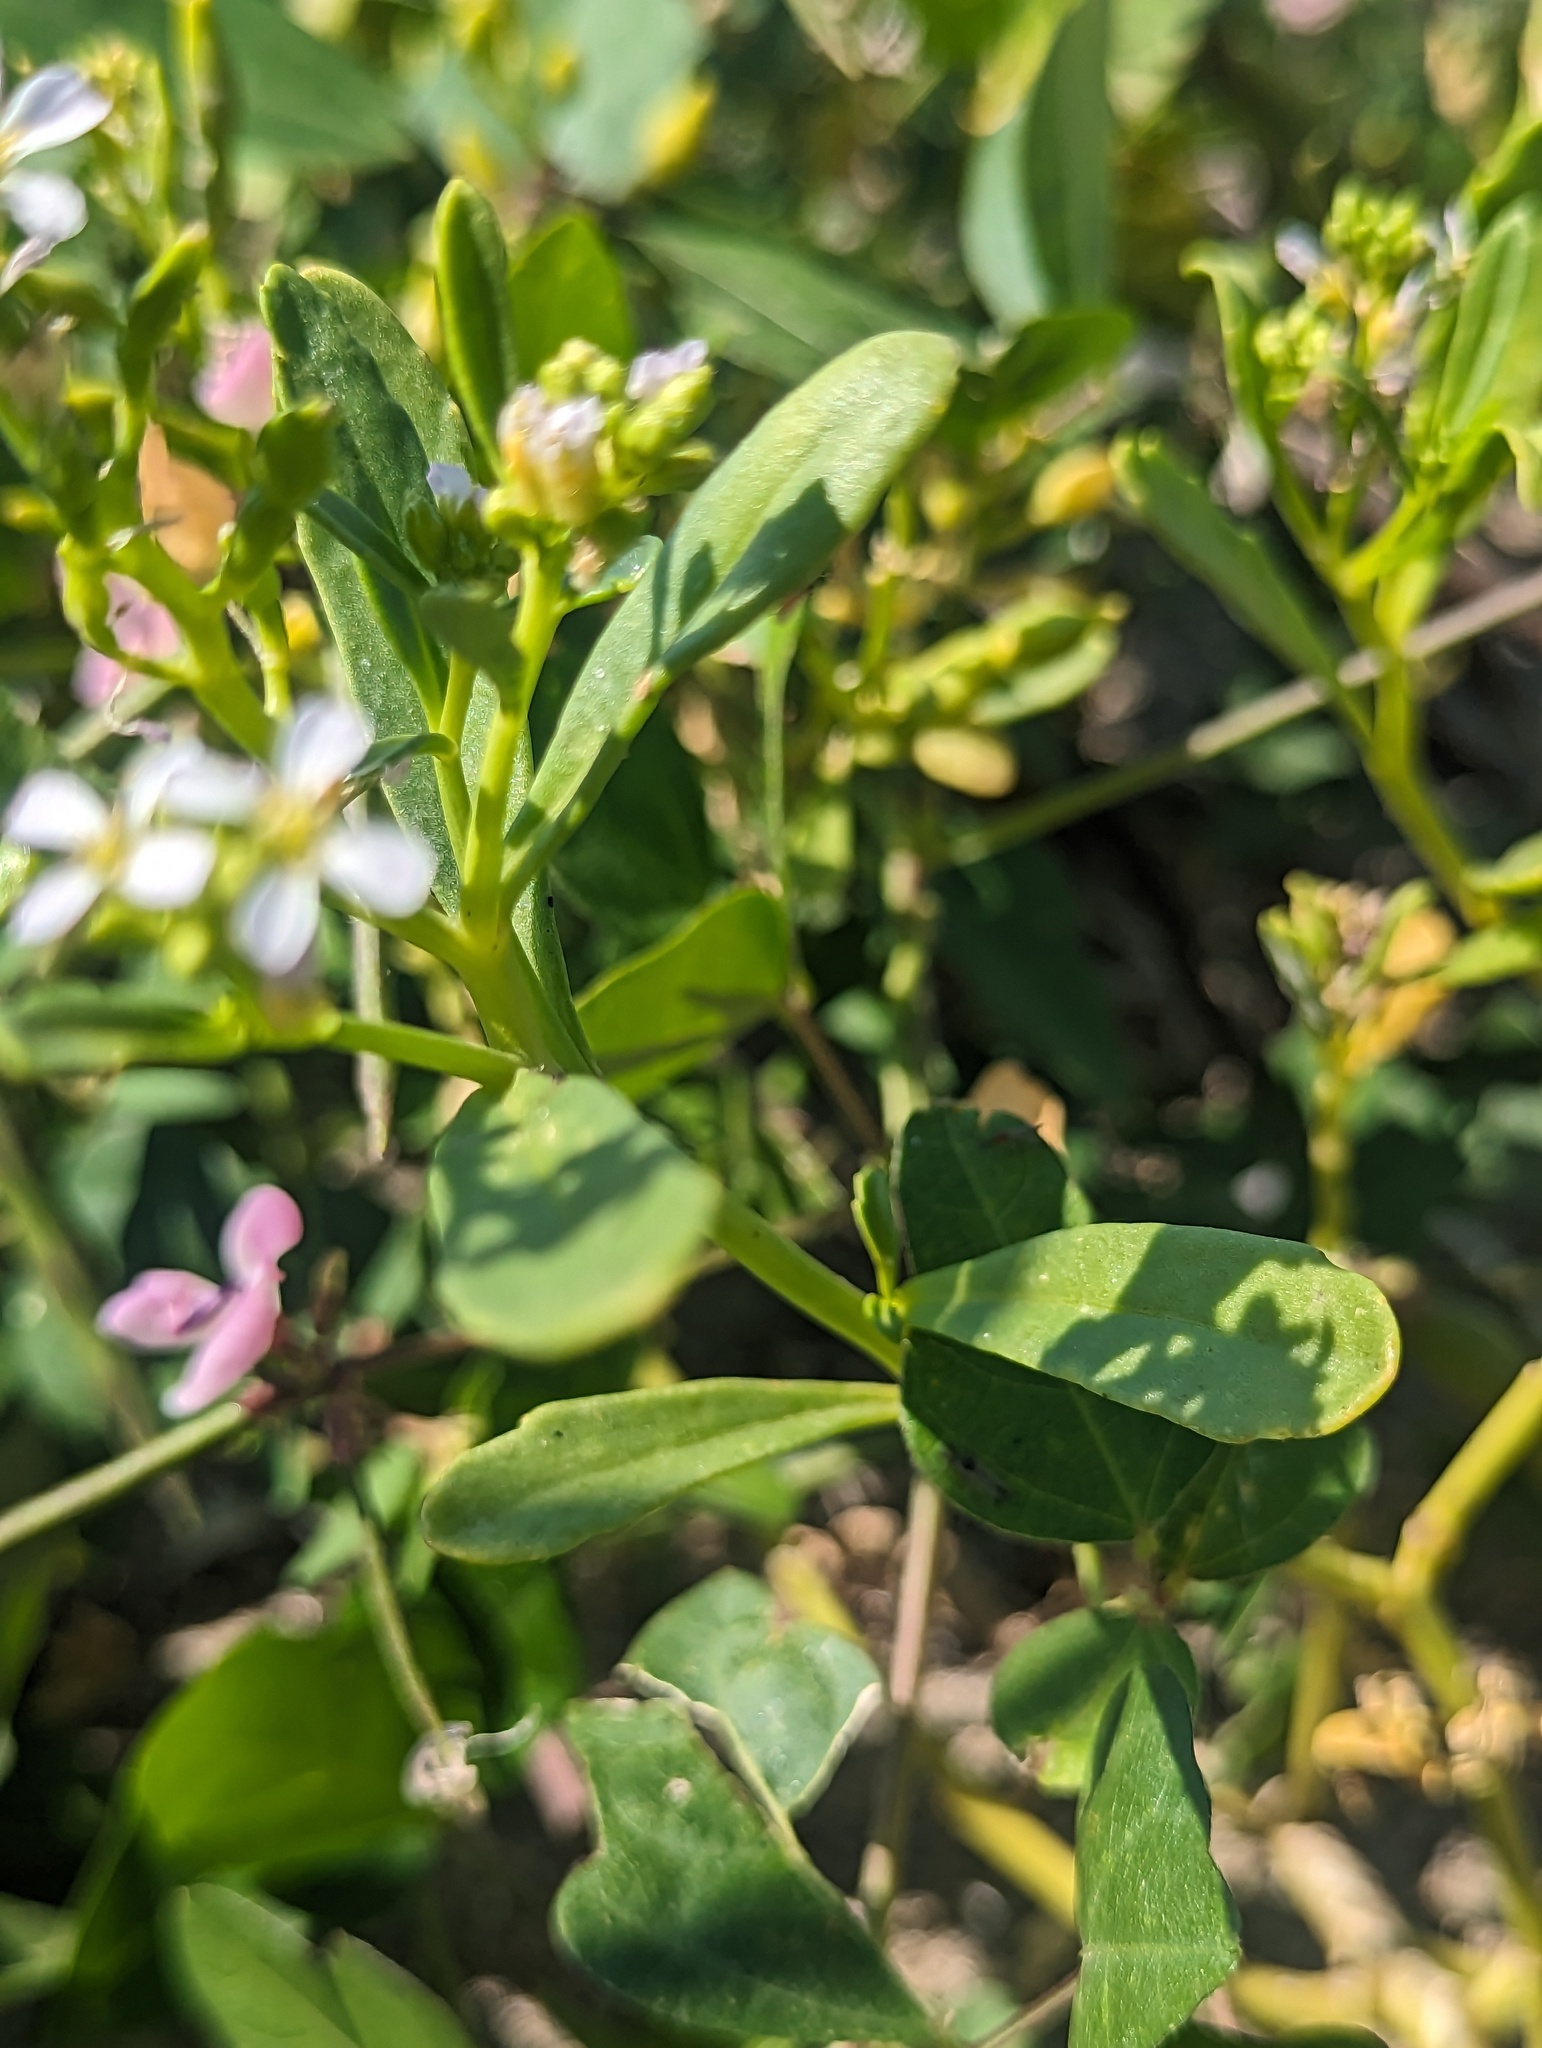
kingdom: Plantae
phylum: Tracheophyta
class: Magnoliopsida
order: Brassicales
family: Brassicaceae
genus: Cakile
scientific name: Cakile edentula
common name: American sea rocket
